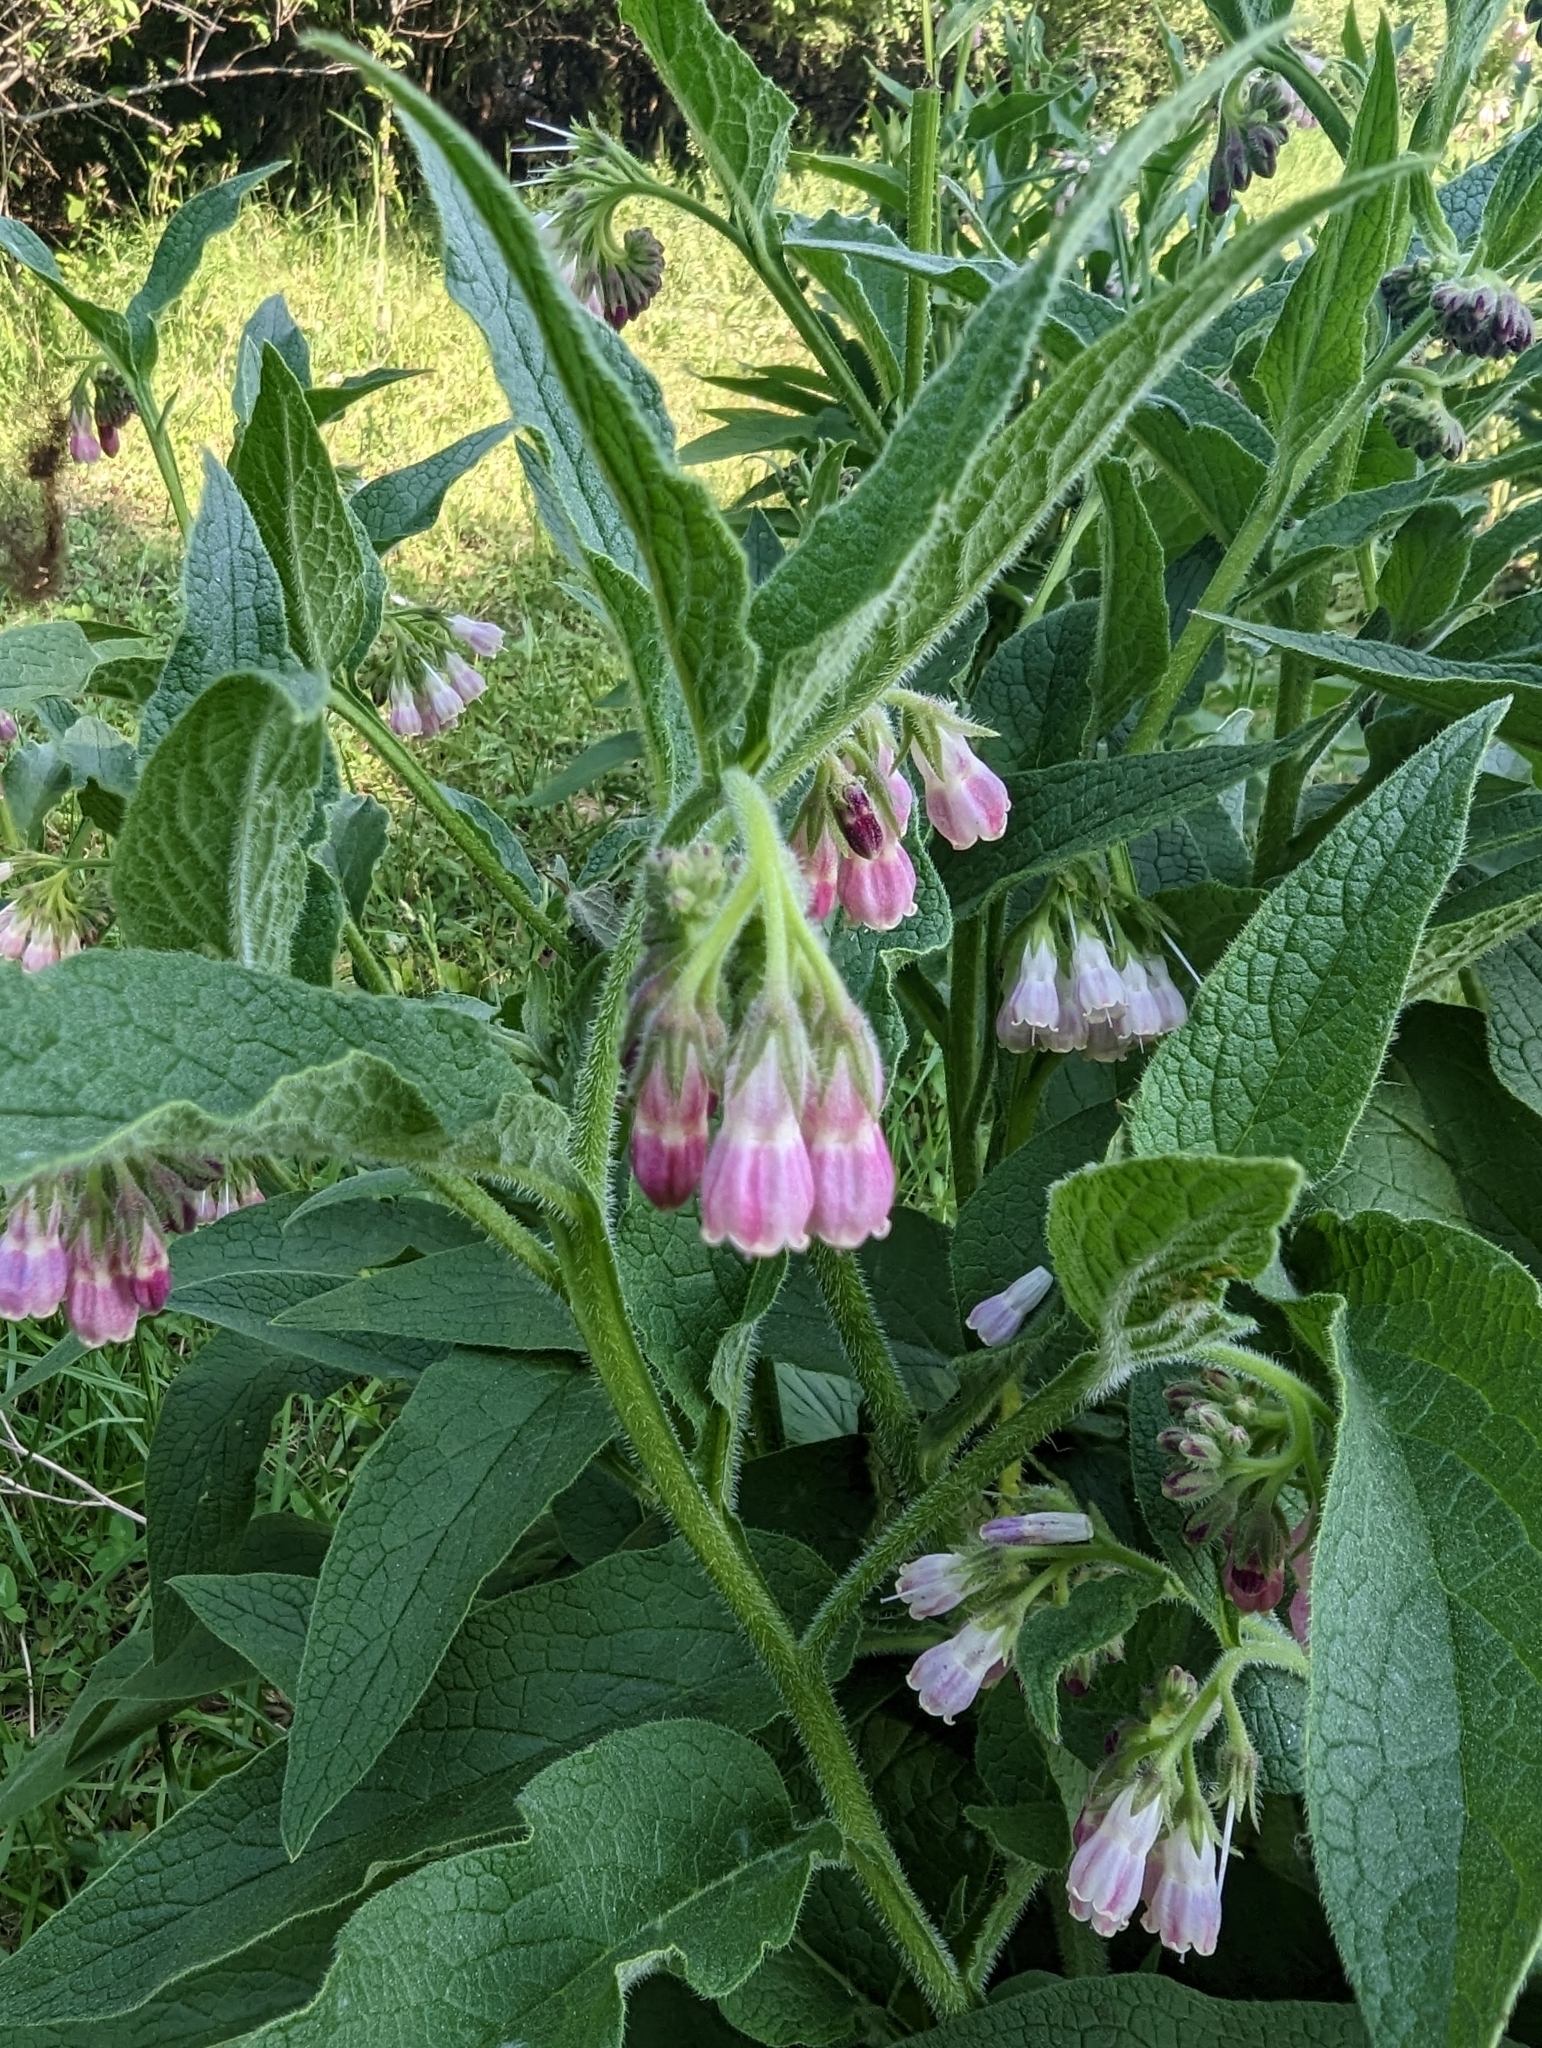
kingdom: Plantae
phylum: Tracheophyta
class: Magnoliopsida
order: Boraginales
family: Boraginaceae
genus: Symphytum
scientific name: Symphytum officinale
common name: Common comfrey
